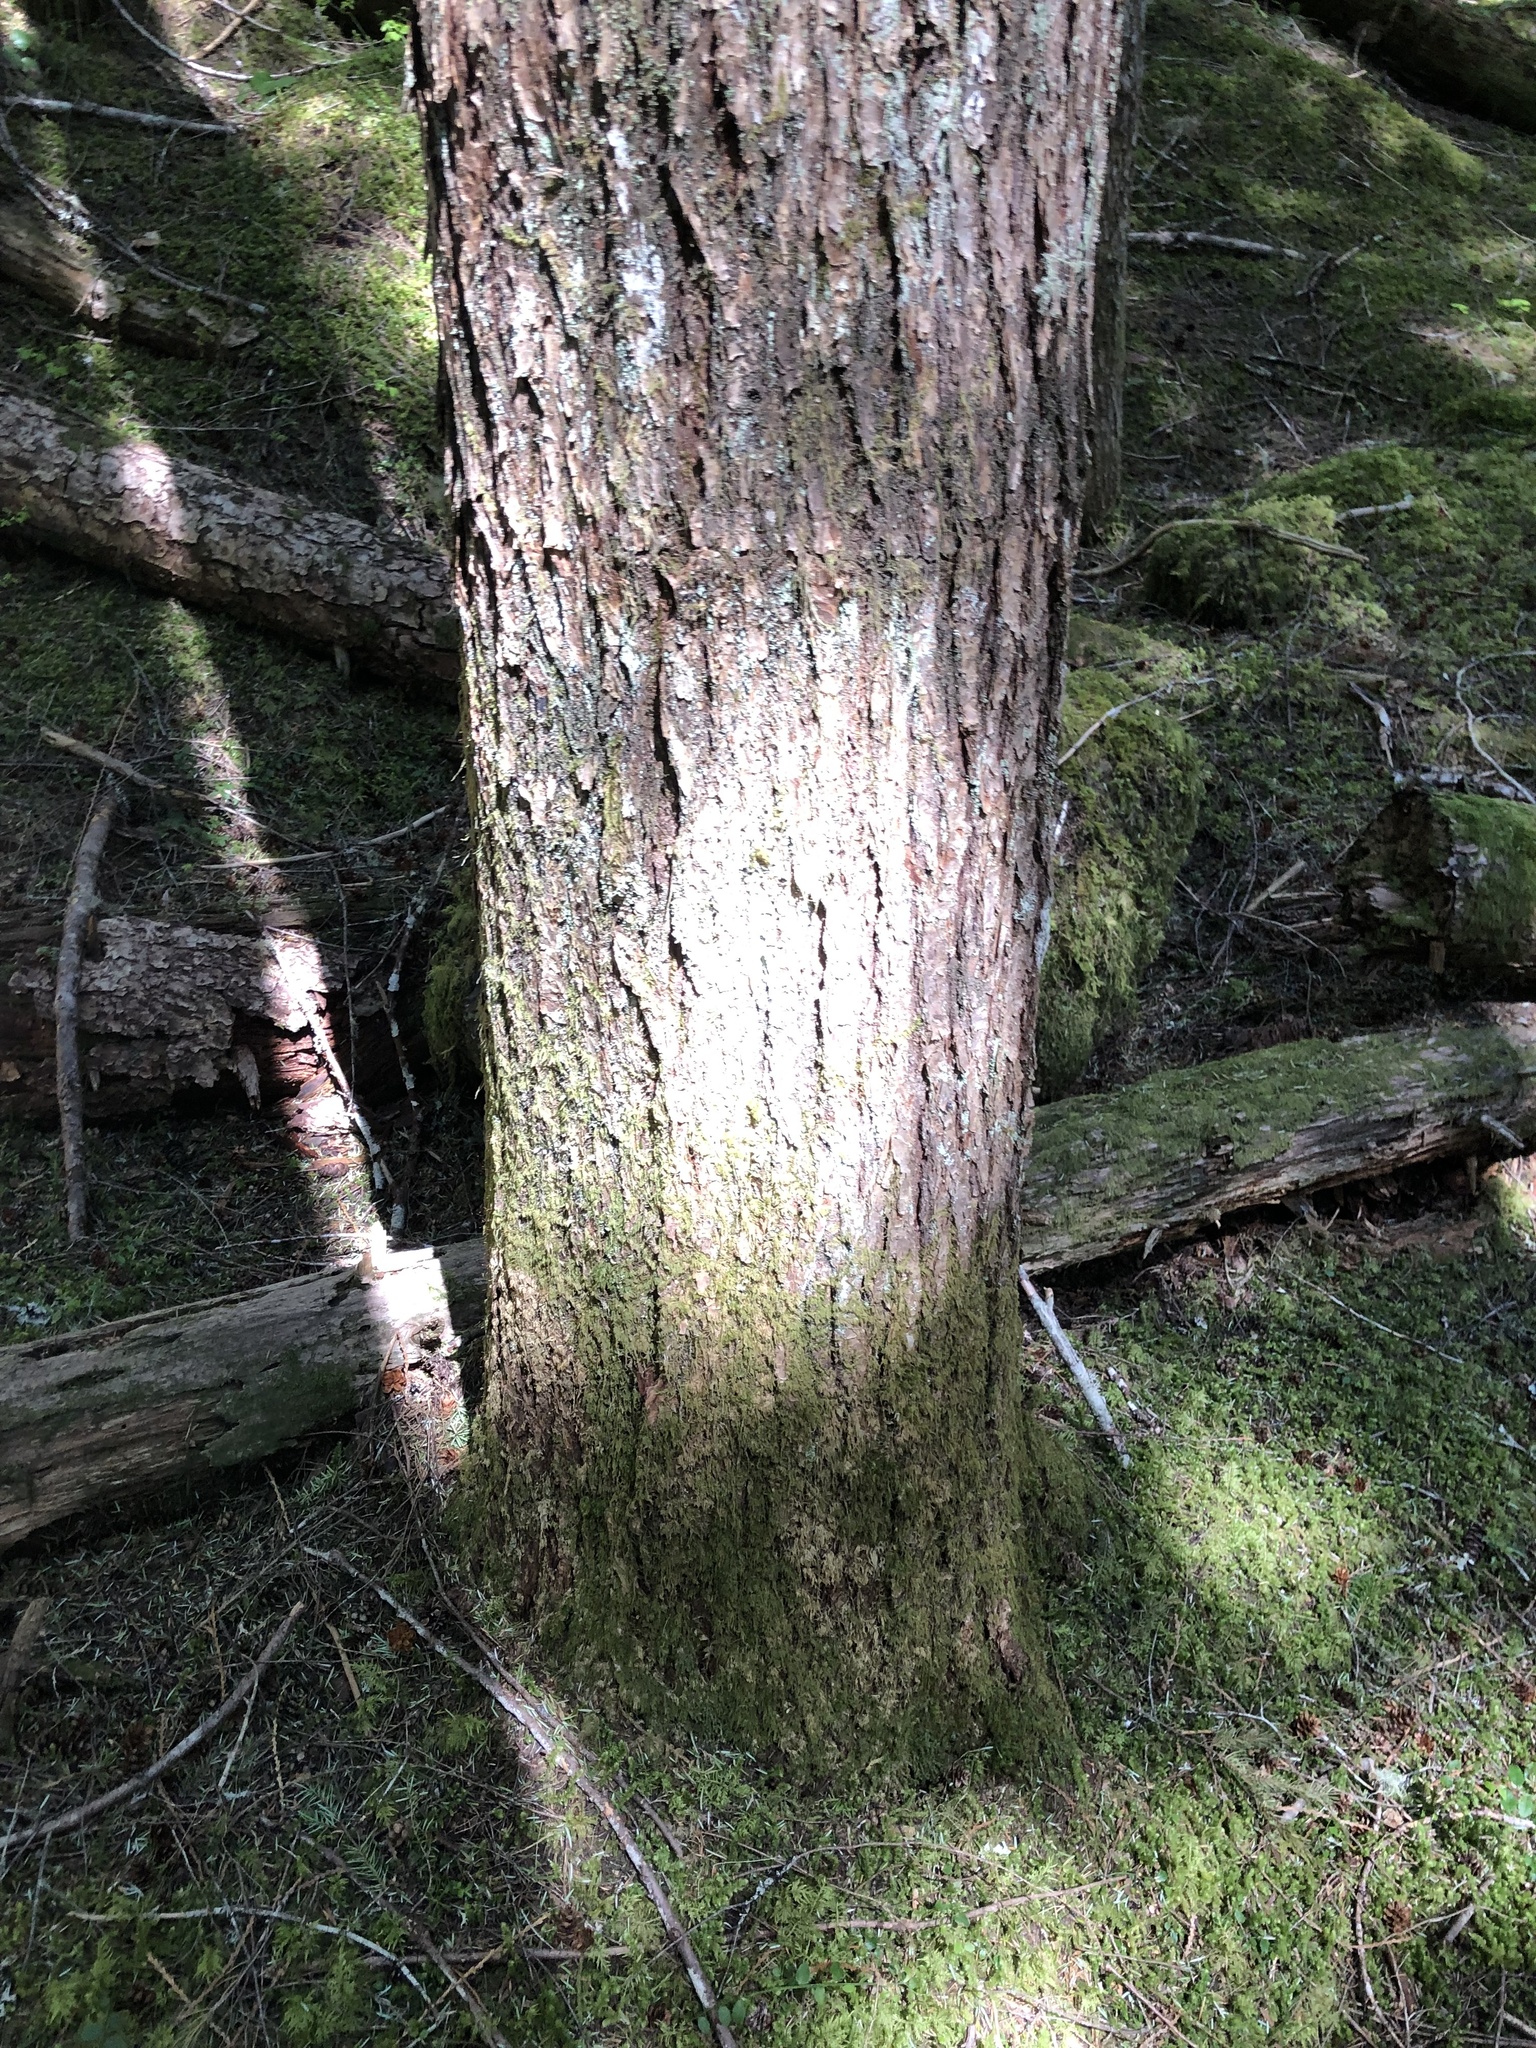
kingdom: Plantae
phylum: Tracheophyta
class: Pinopsida
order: Pinales
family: Pinaceae
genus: Tsuga
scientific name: Tsuga heterophylla
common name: Western hemlock
